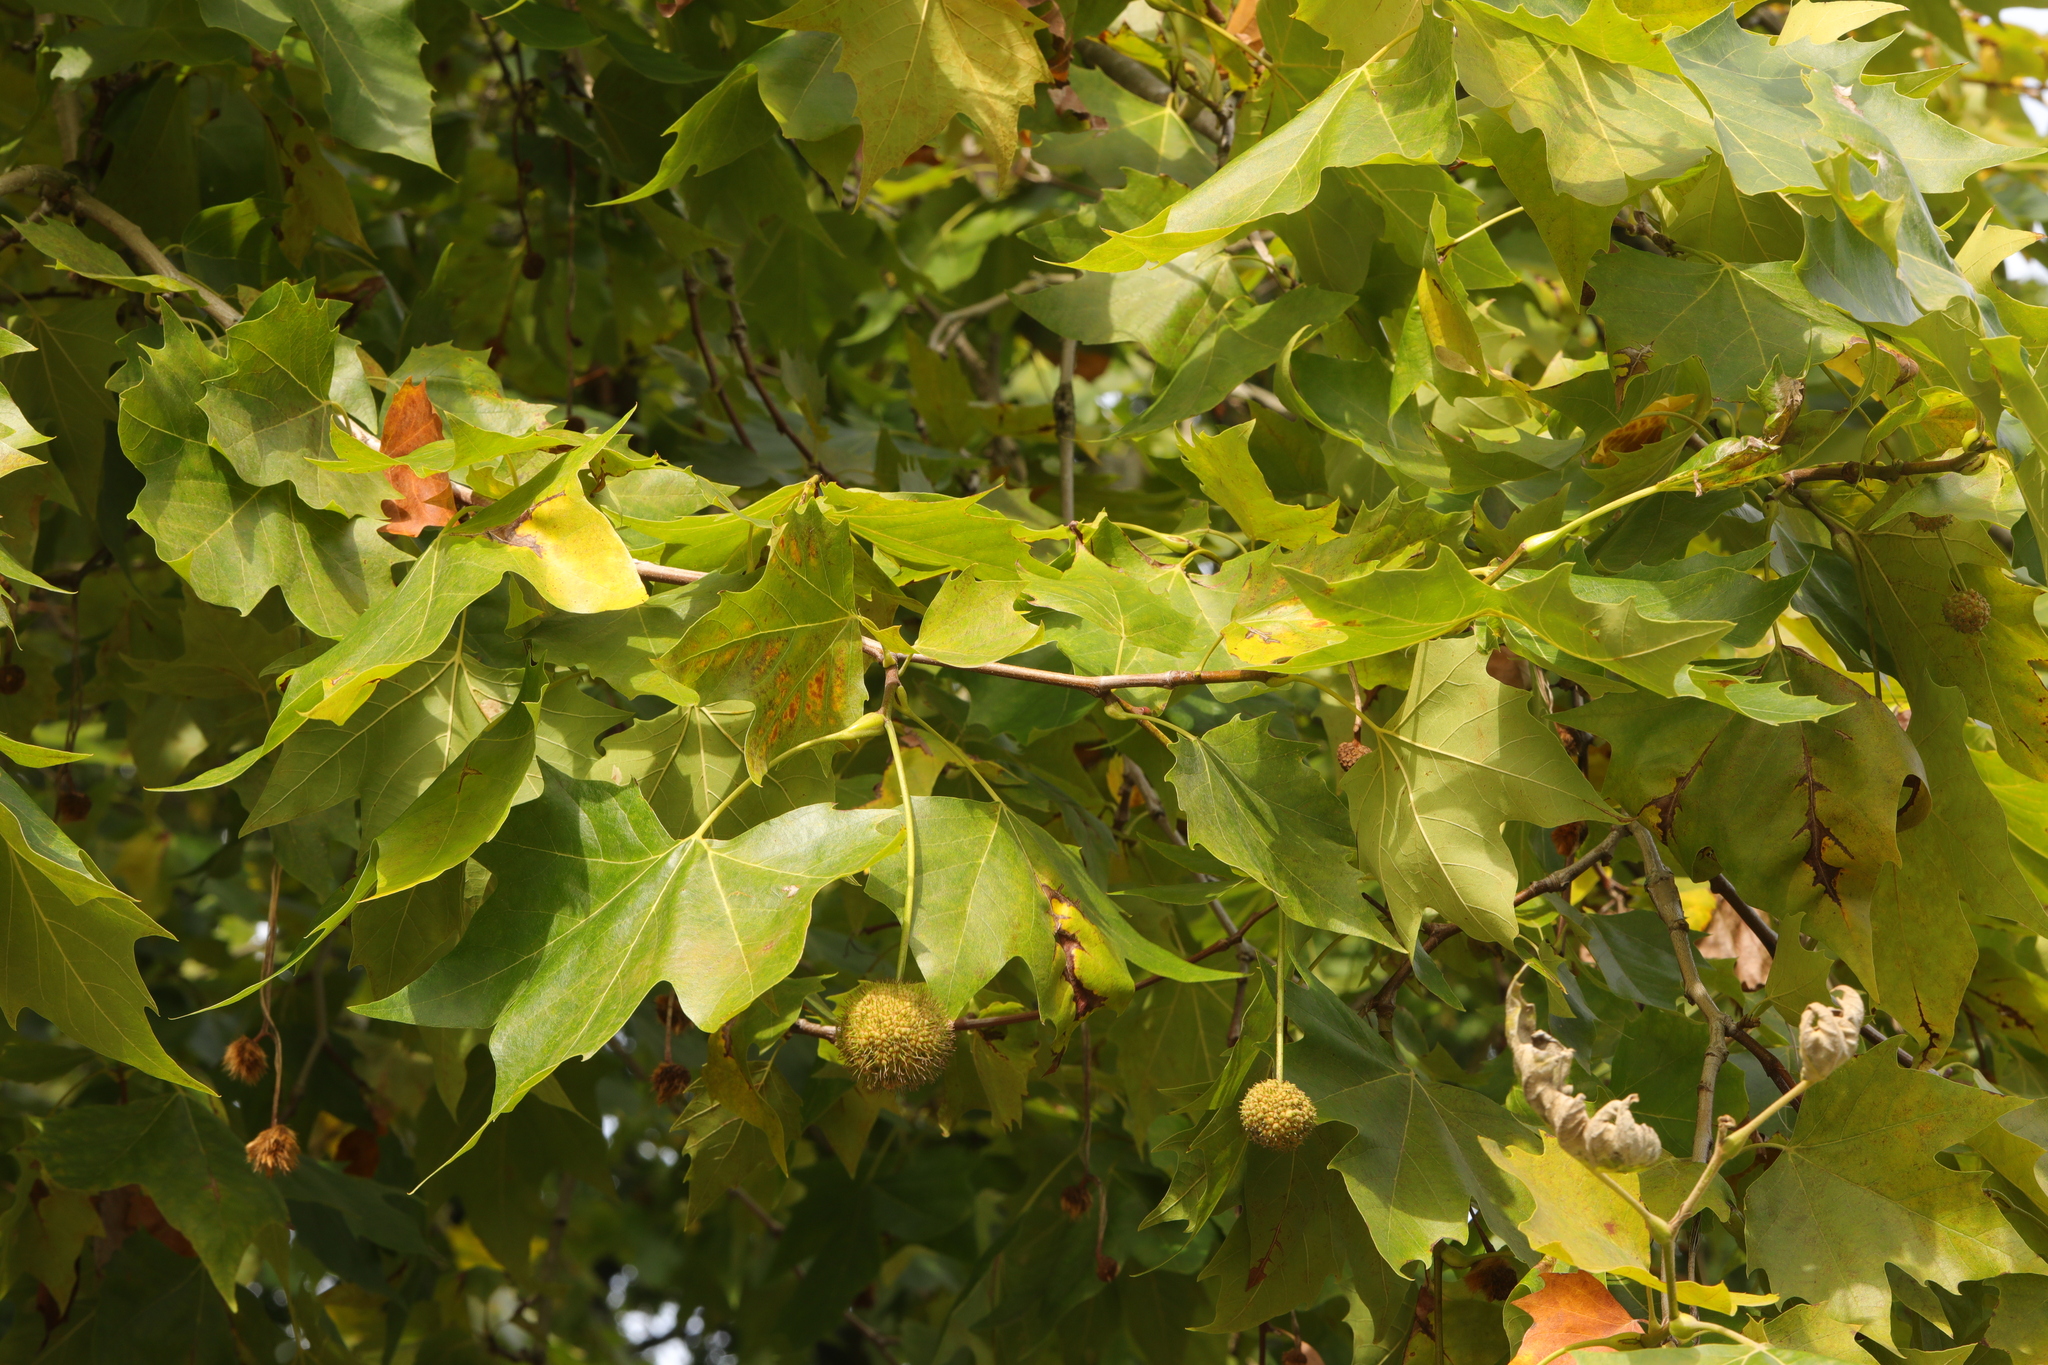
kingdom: Plantae
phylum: Tracheophyta
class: Magnoliopsida
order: Proteales
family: Platanaceae
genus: Platanus
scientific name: Platanus hispanica
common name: London plane
